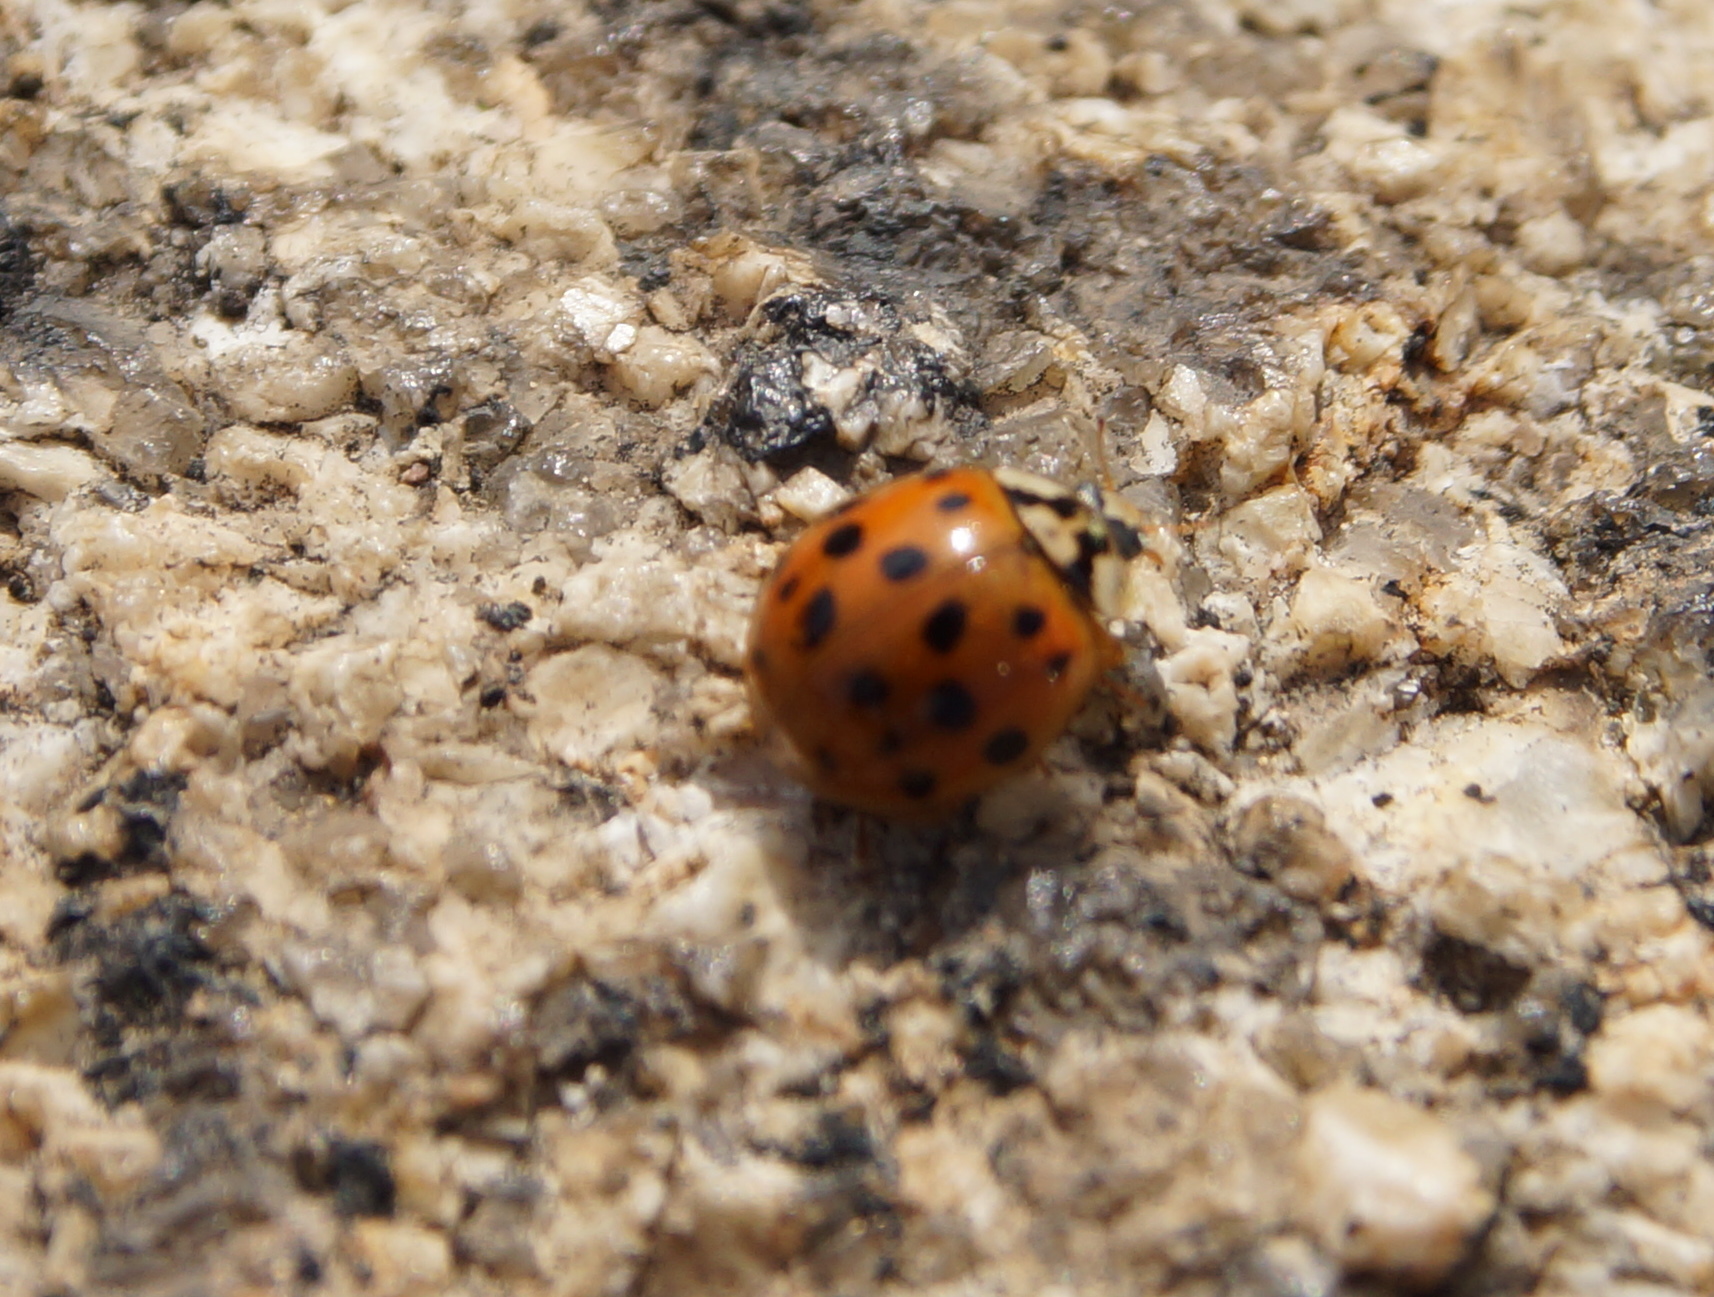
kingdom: Animalia
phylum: Arthropoda
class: Insecta
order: Coleoptera
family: Coccinellidae
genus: Harmonia
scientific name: Harmonia axyridis
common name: Harlequin ladybird
